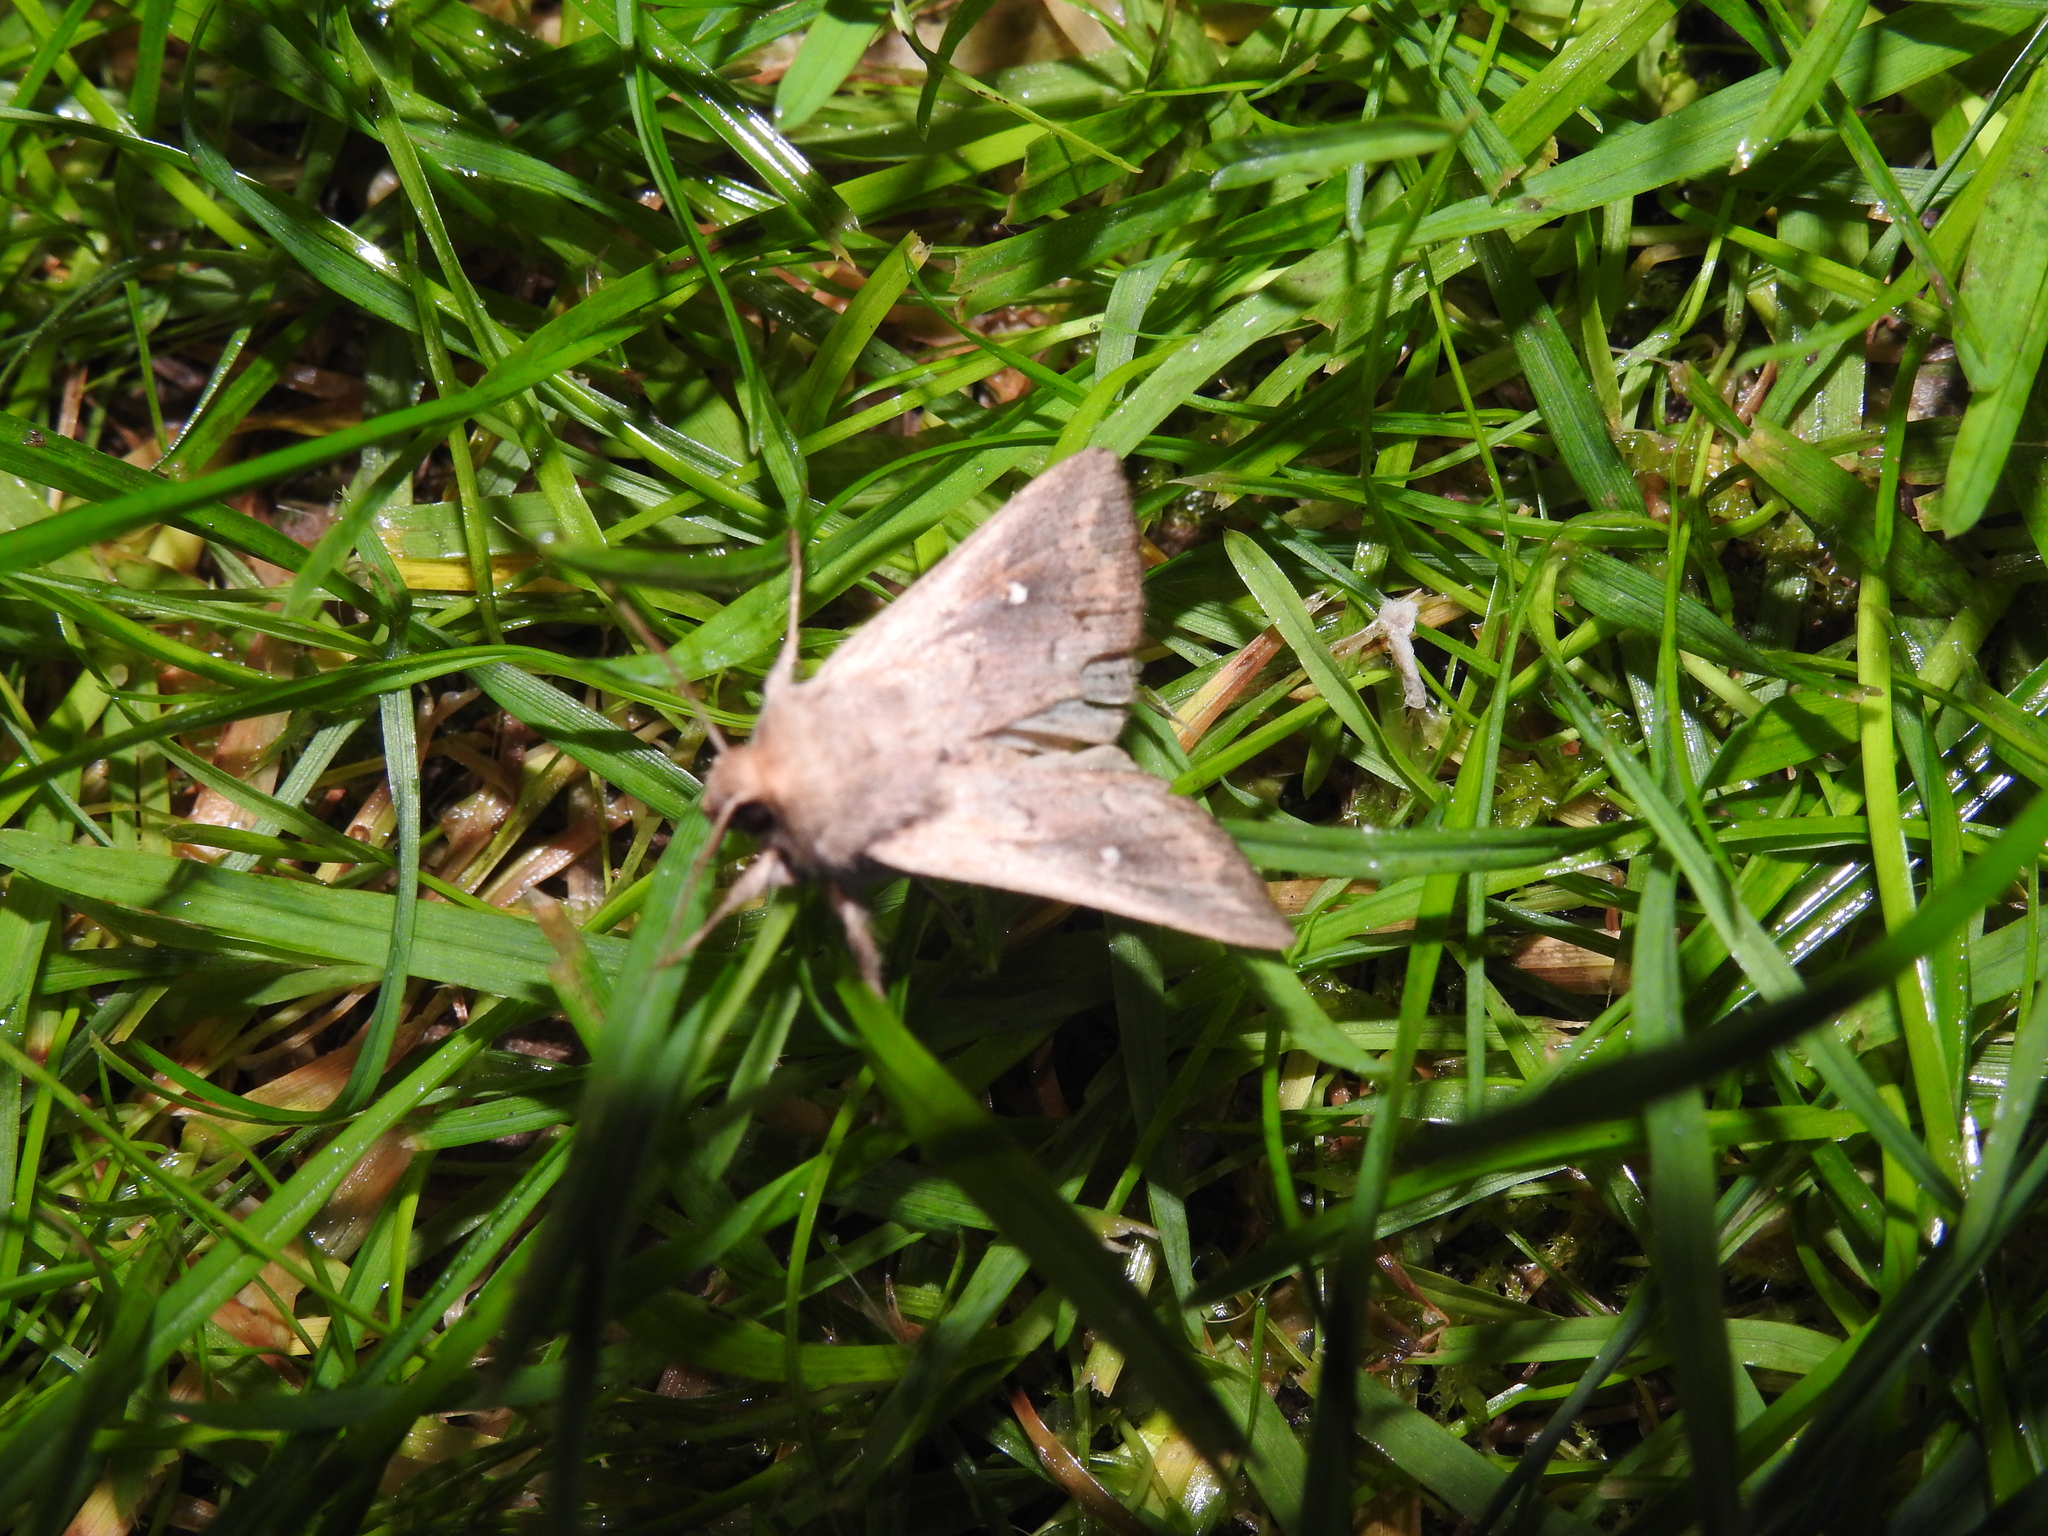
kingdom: Animalia
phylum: Arthropoda
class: Insecta
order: Lepidoptera
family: Noctuidae
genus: Mythimna
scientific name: Mythimna albipuncta
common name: White-point
